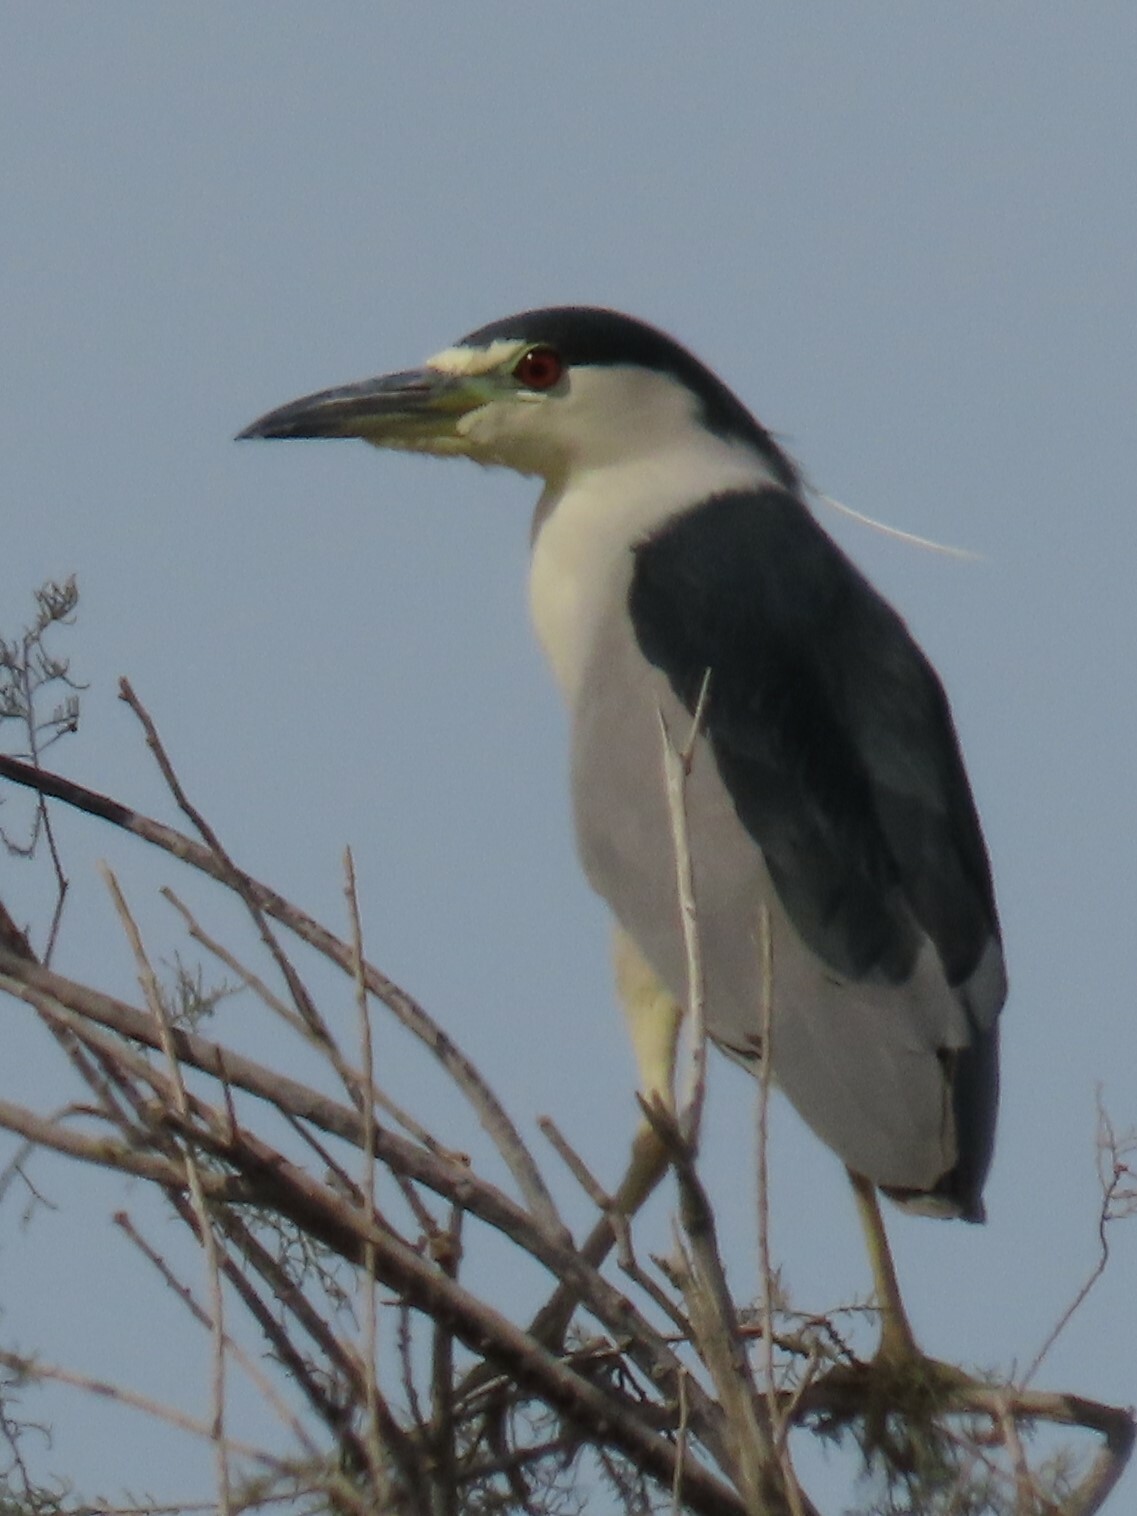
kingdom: Animalia
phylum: Chordata
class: Aves
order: Pelecaniformes
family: Ardeidae
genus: Nycticorax
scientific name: Nycticorax nycticorax
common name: Black-crowned night heron
